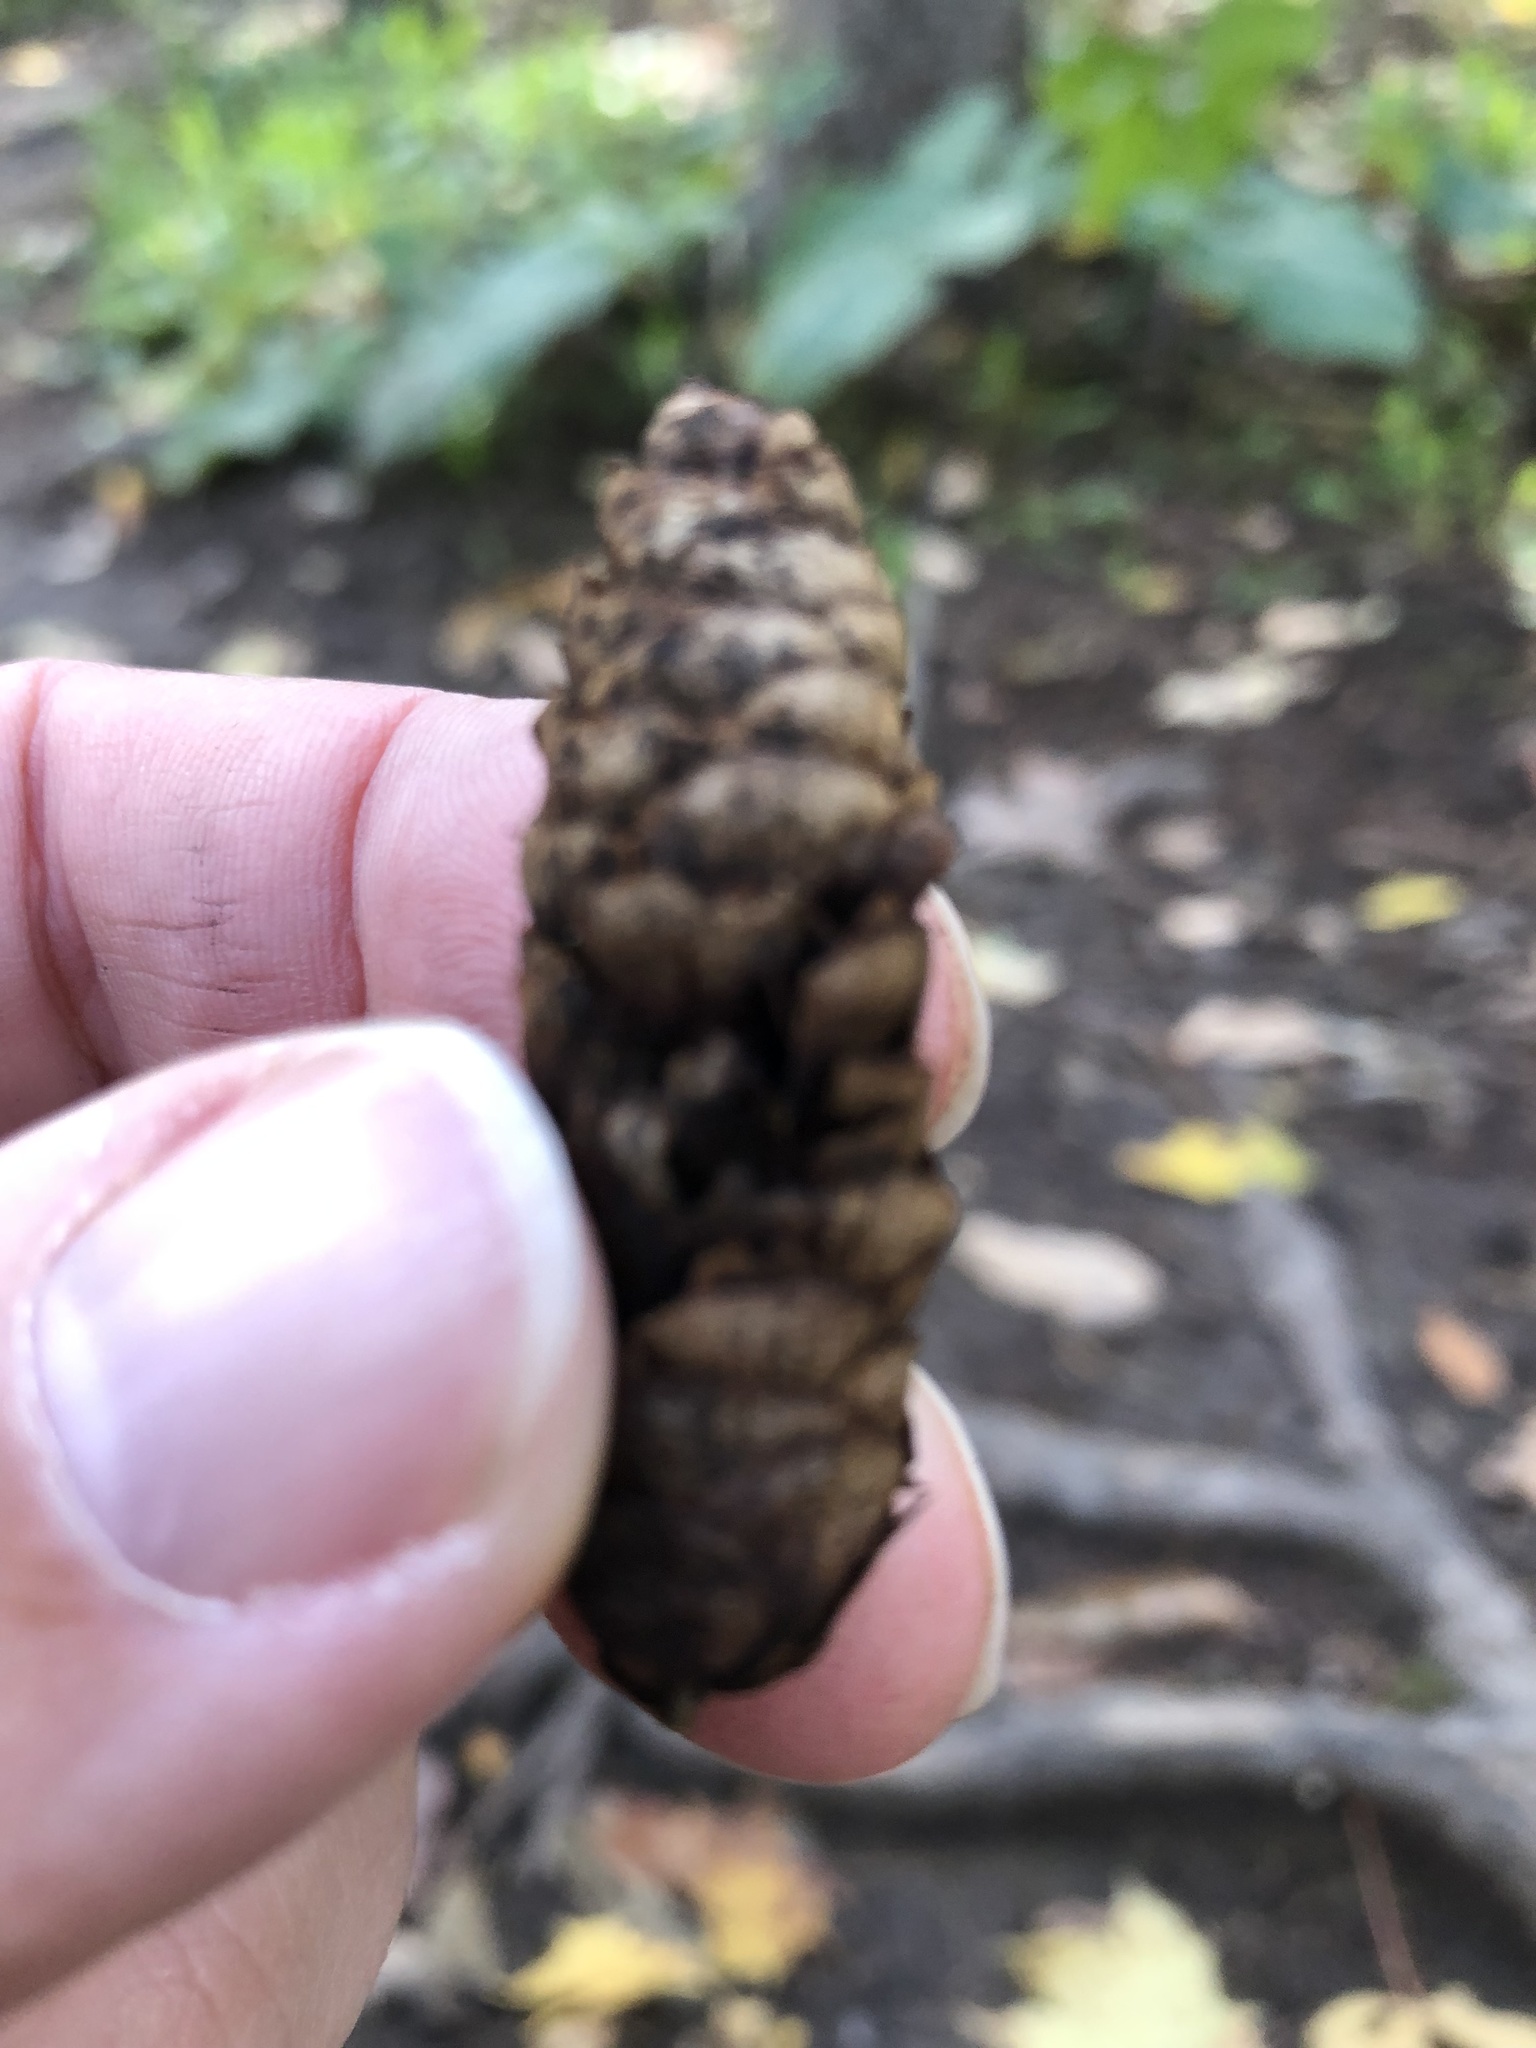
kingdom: Plantae
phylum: Tracheophyta
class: Pinopsida
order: Pinales
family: Pinaceae
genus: Picea
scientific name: Picea glauca
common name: White spruce
